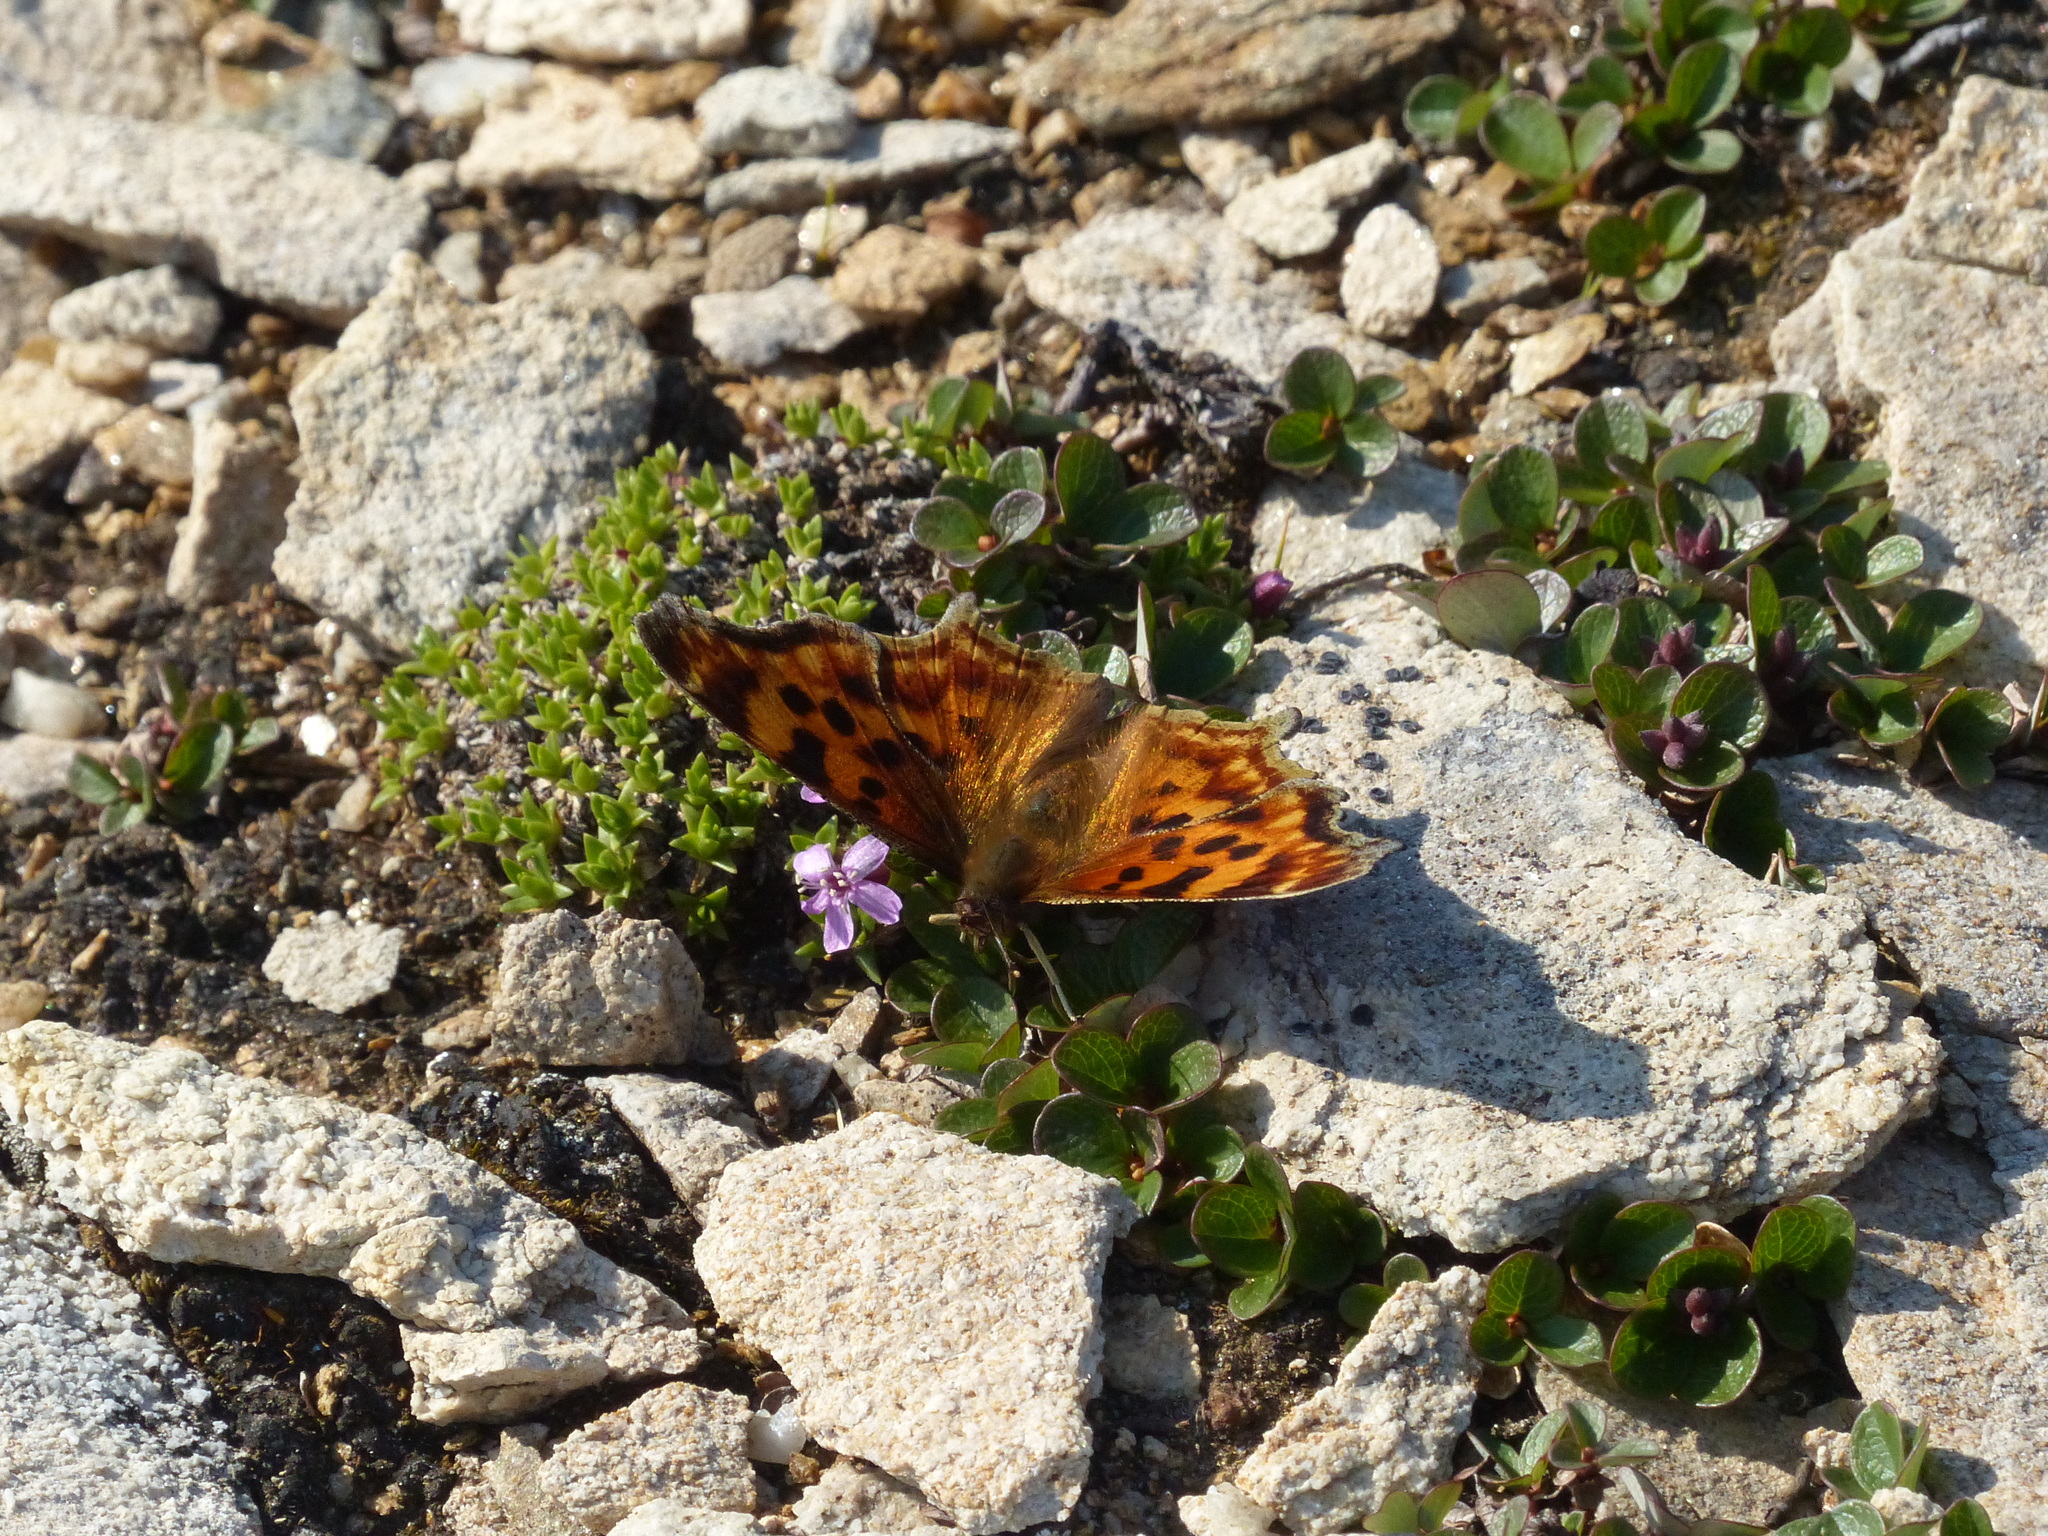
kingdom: Animalia
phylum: Arthropoda
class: Insecta
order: Lepidoptera
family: Nymphalidae
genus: Polygonia
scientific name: Polygonia satyrus
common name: Satyr angle wing
